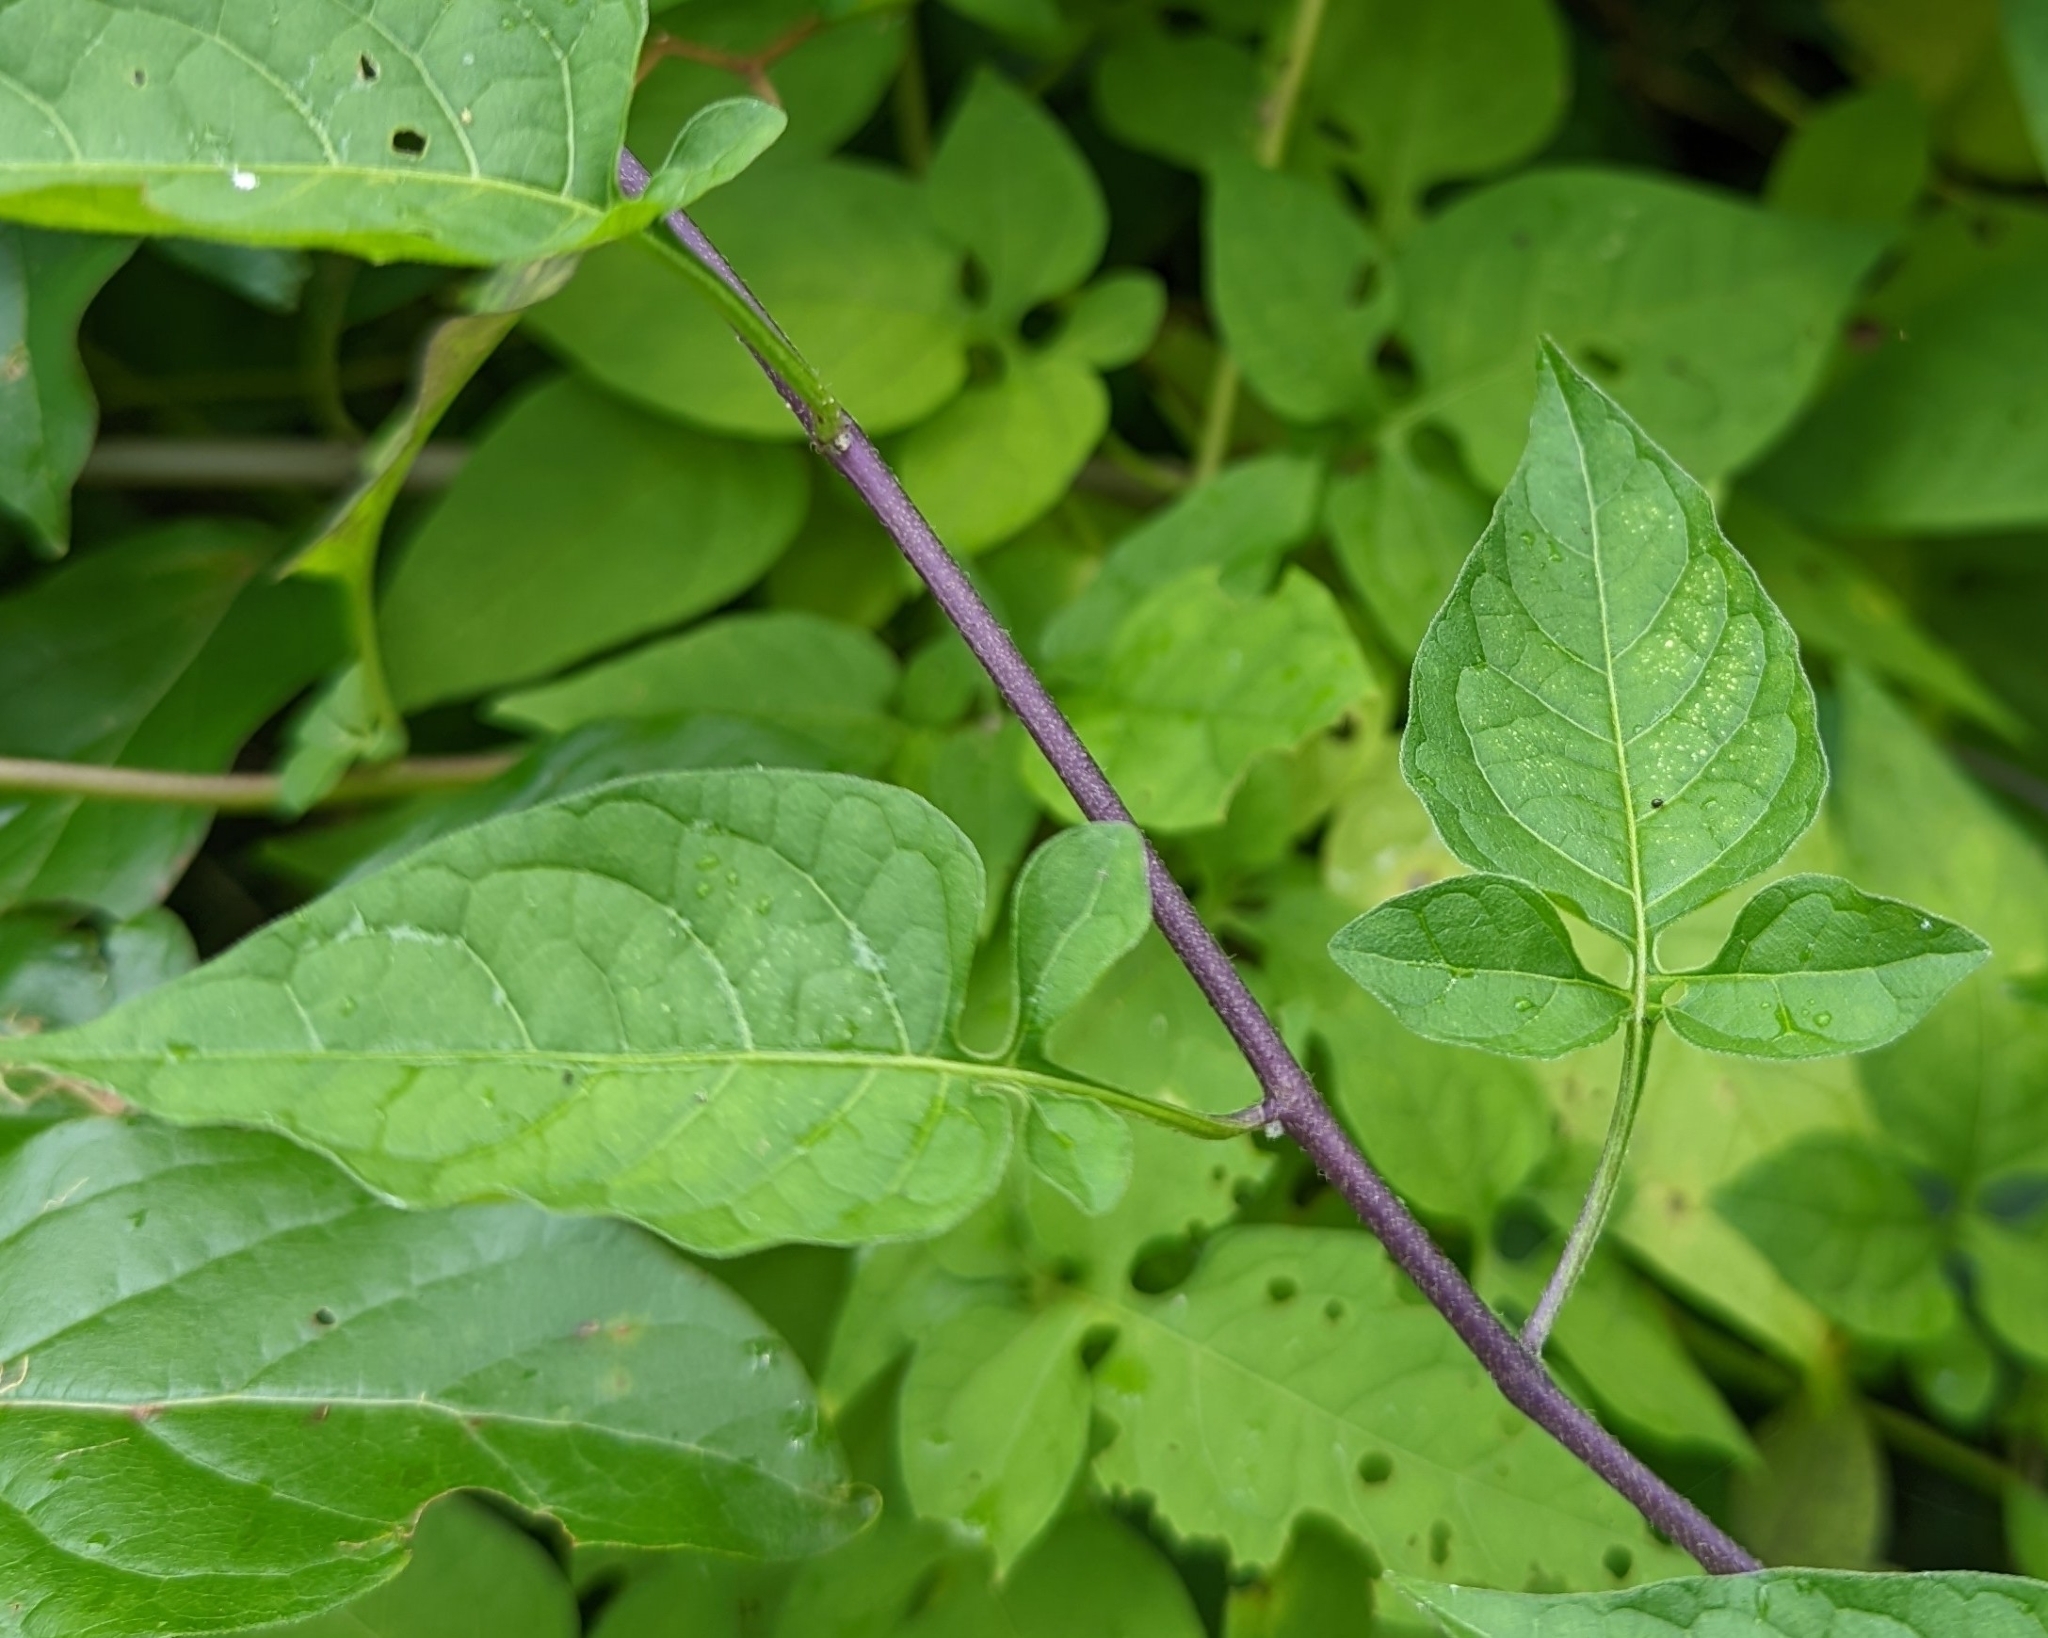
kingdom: Plantae
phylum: Tracheophyta
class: Magnoliopsida
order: Solanales
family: Solanaceae
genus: Solanum
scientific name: Solanum dulcamara
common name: Climbing nightshade
